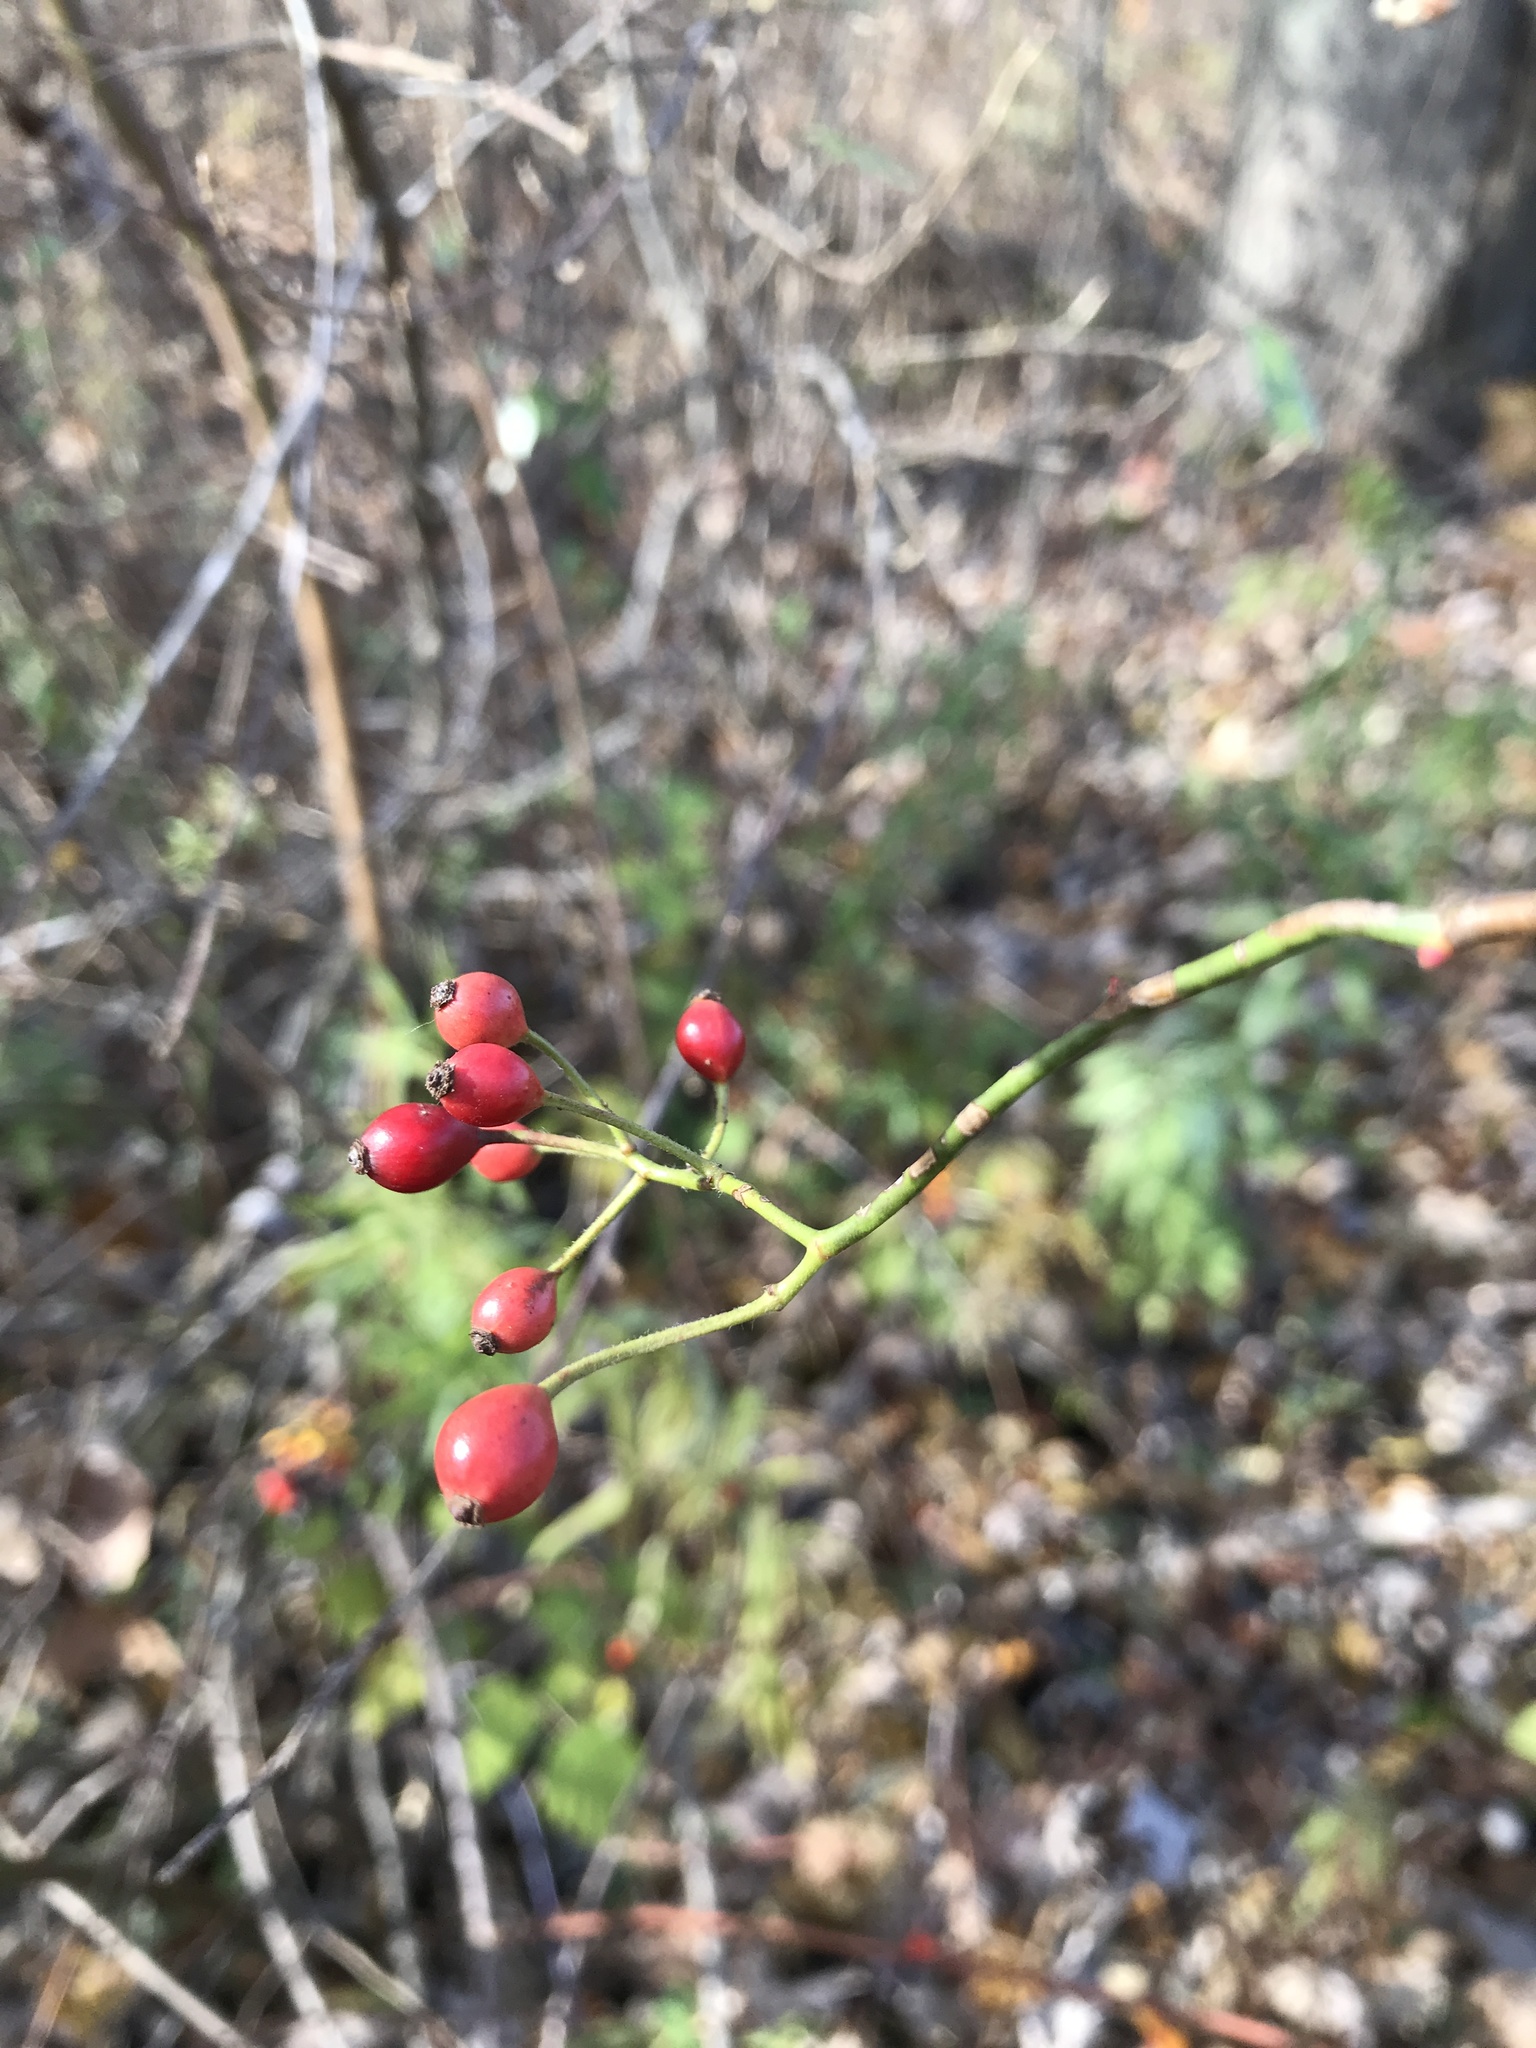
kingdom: Plantae
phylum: Tracheophyta
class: Magnoliopsida
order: Rosales
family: Rosaceae
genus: Rosa
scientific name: Rosa multiflora
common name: Multiflora rose
